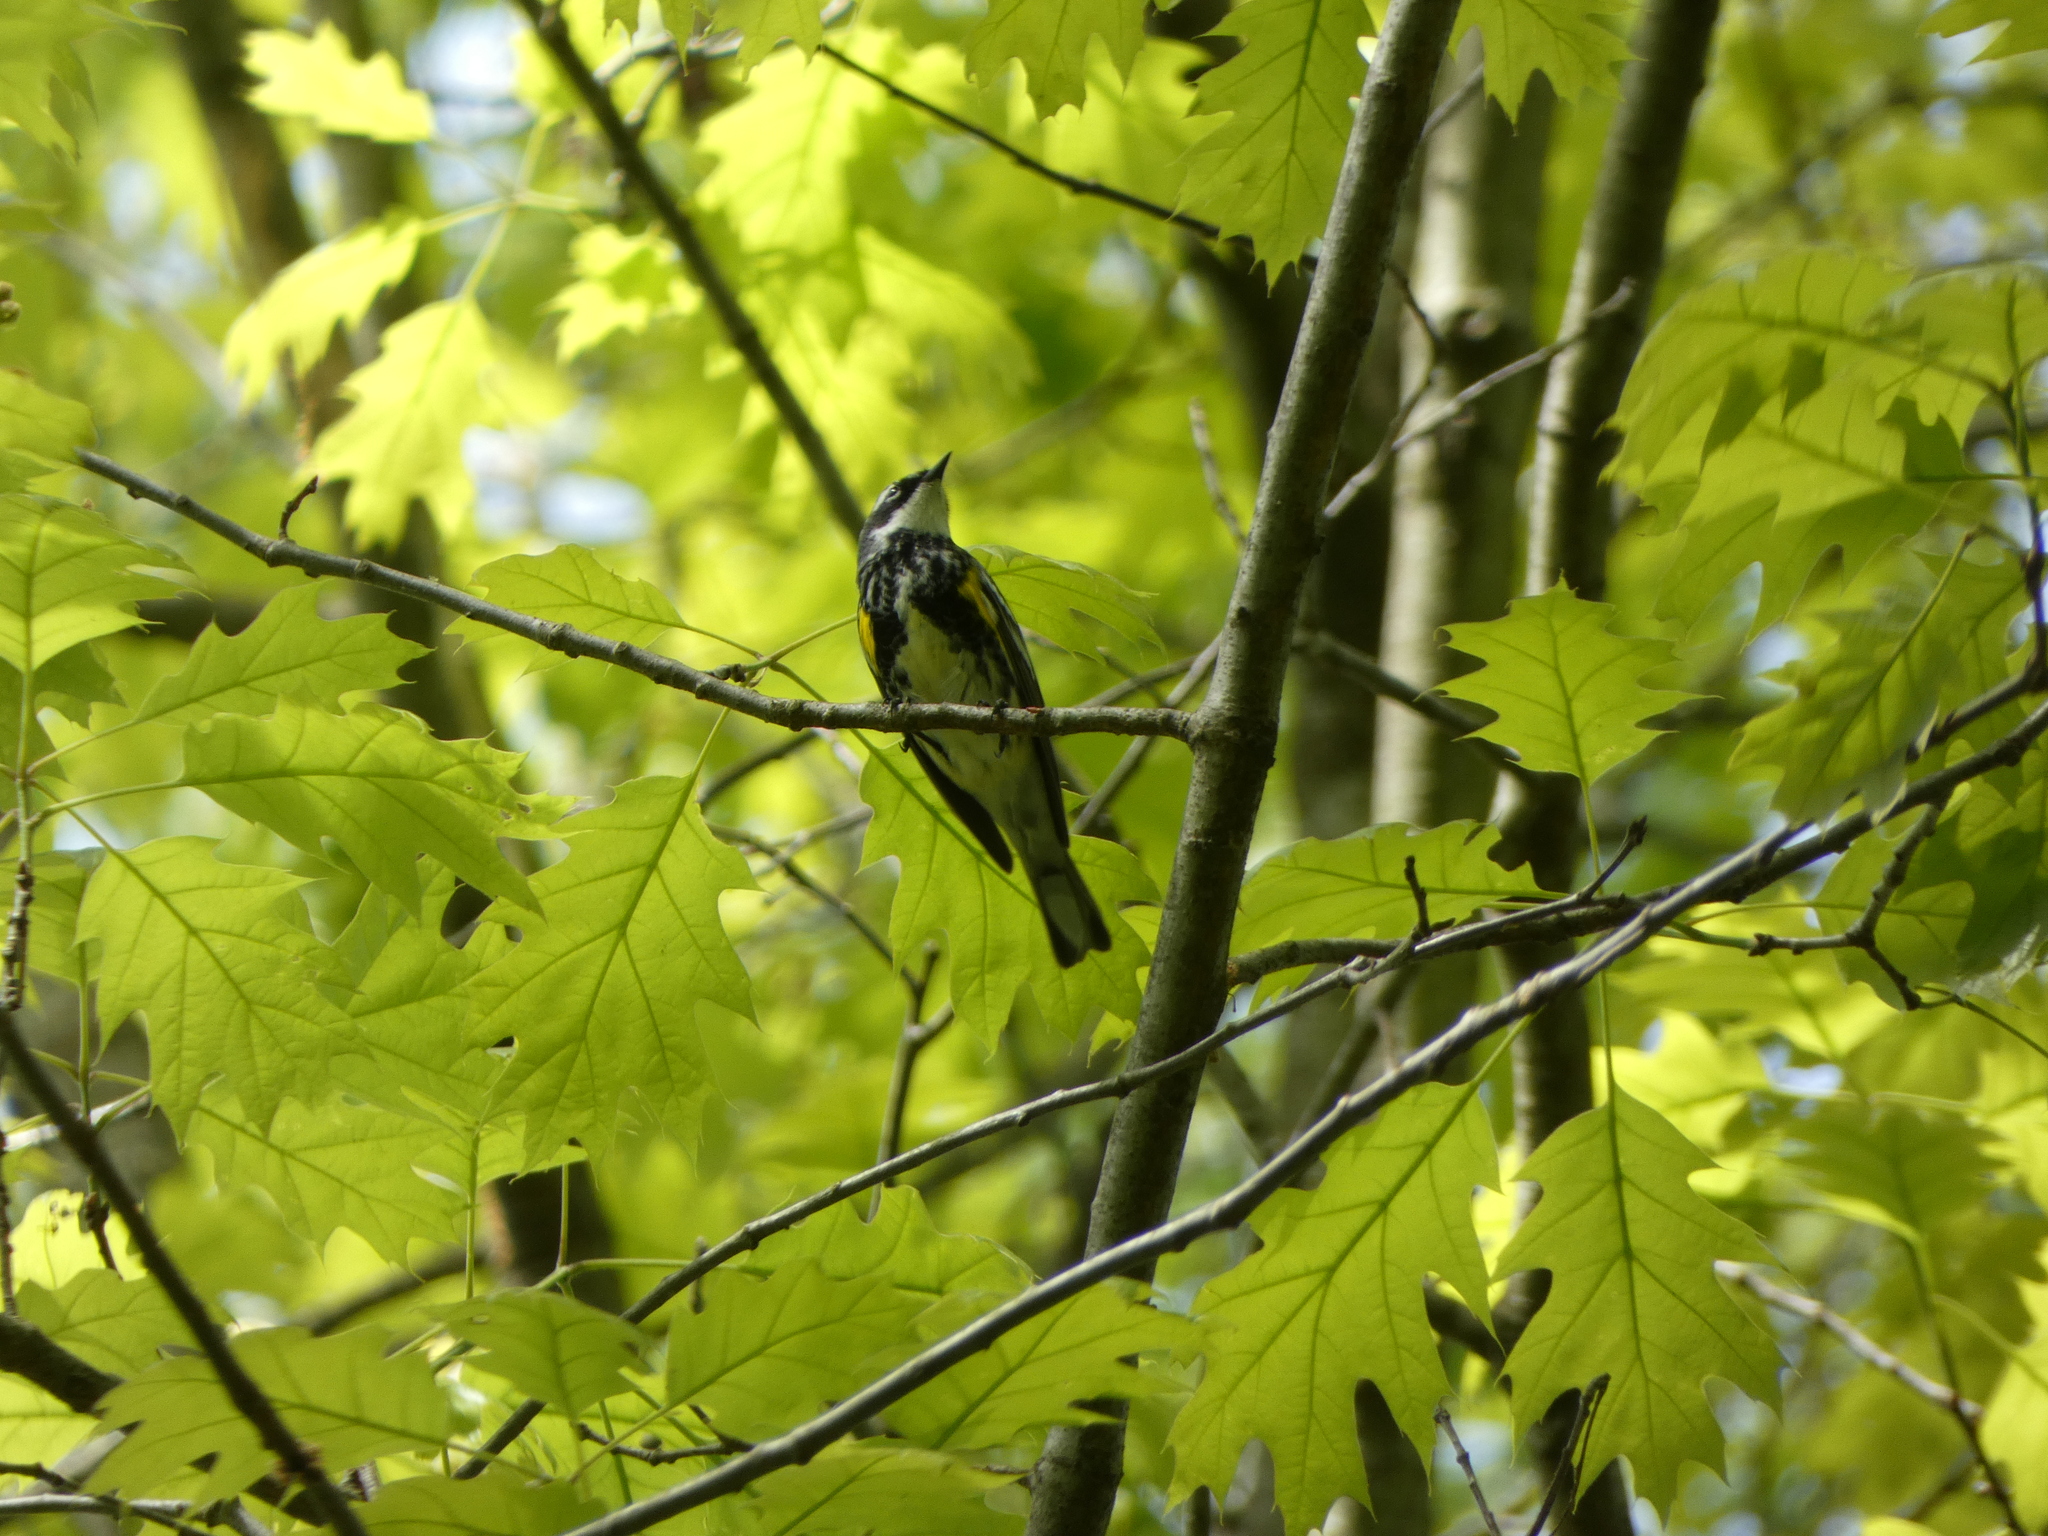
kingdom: Animalia
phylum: Chordata
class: Aves
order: Passeriformes
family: Parulidae
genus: Setophaga
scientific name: Setophaga coronata
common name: Myrtle warbler
